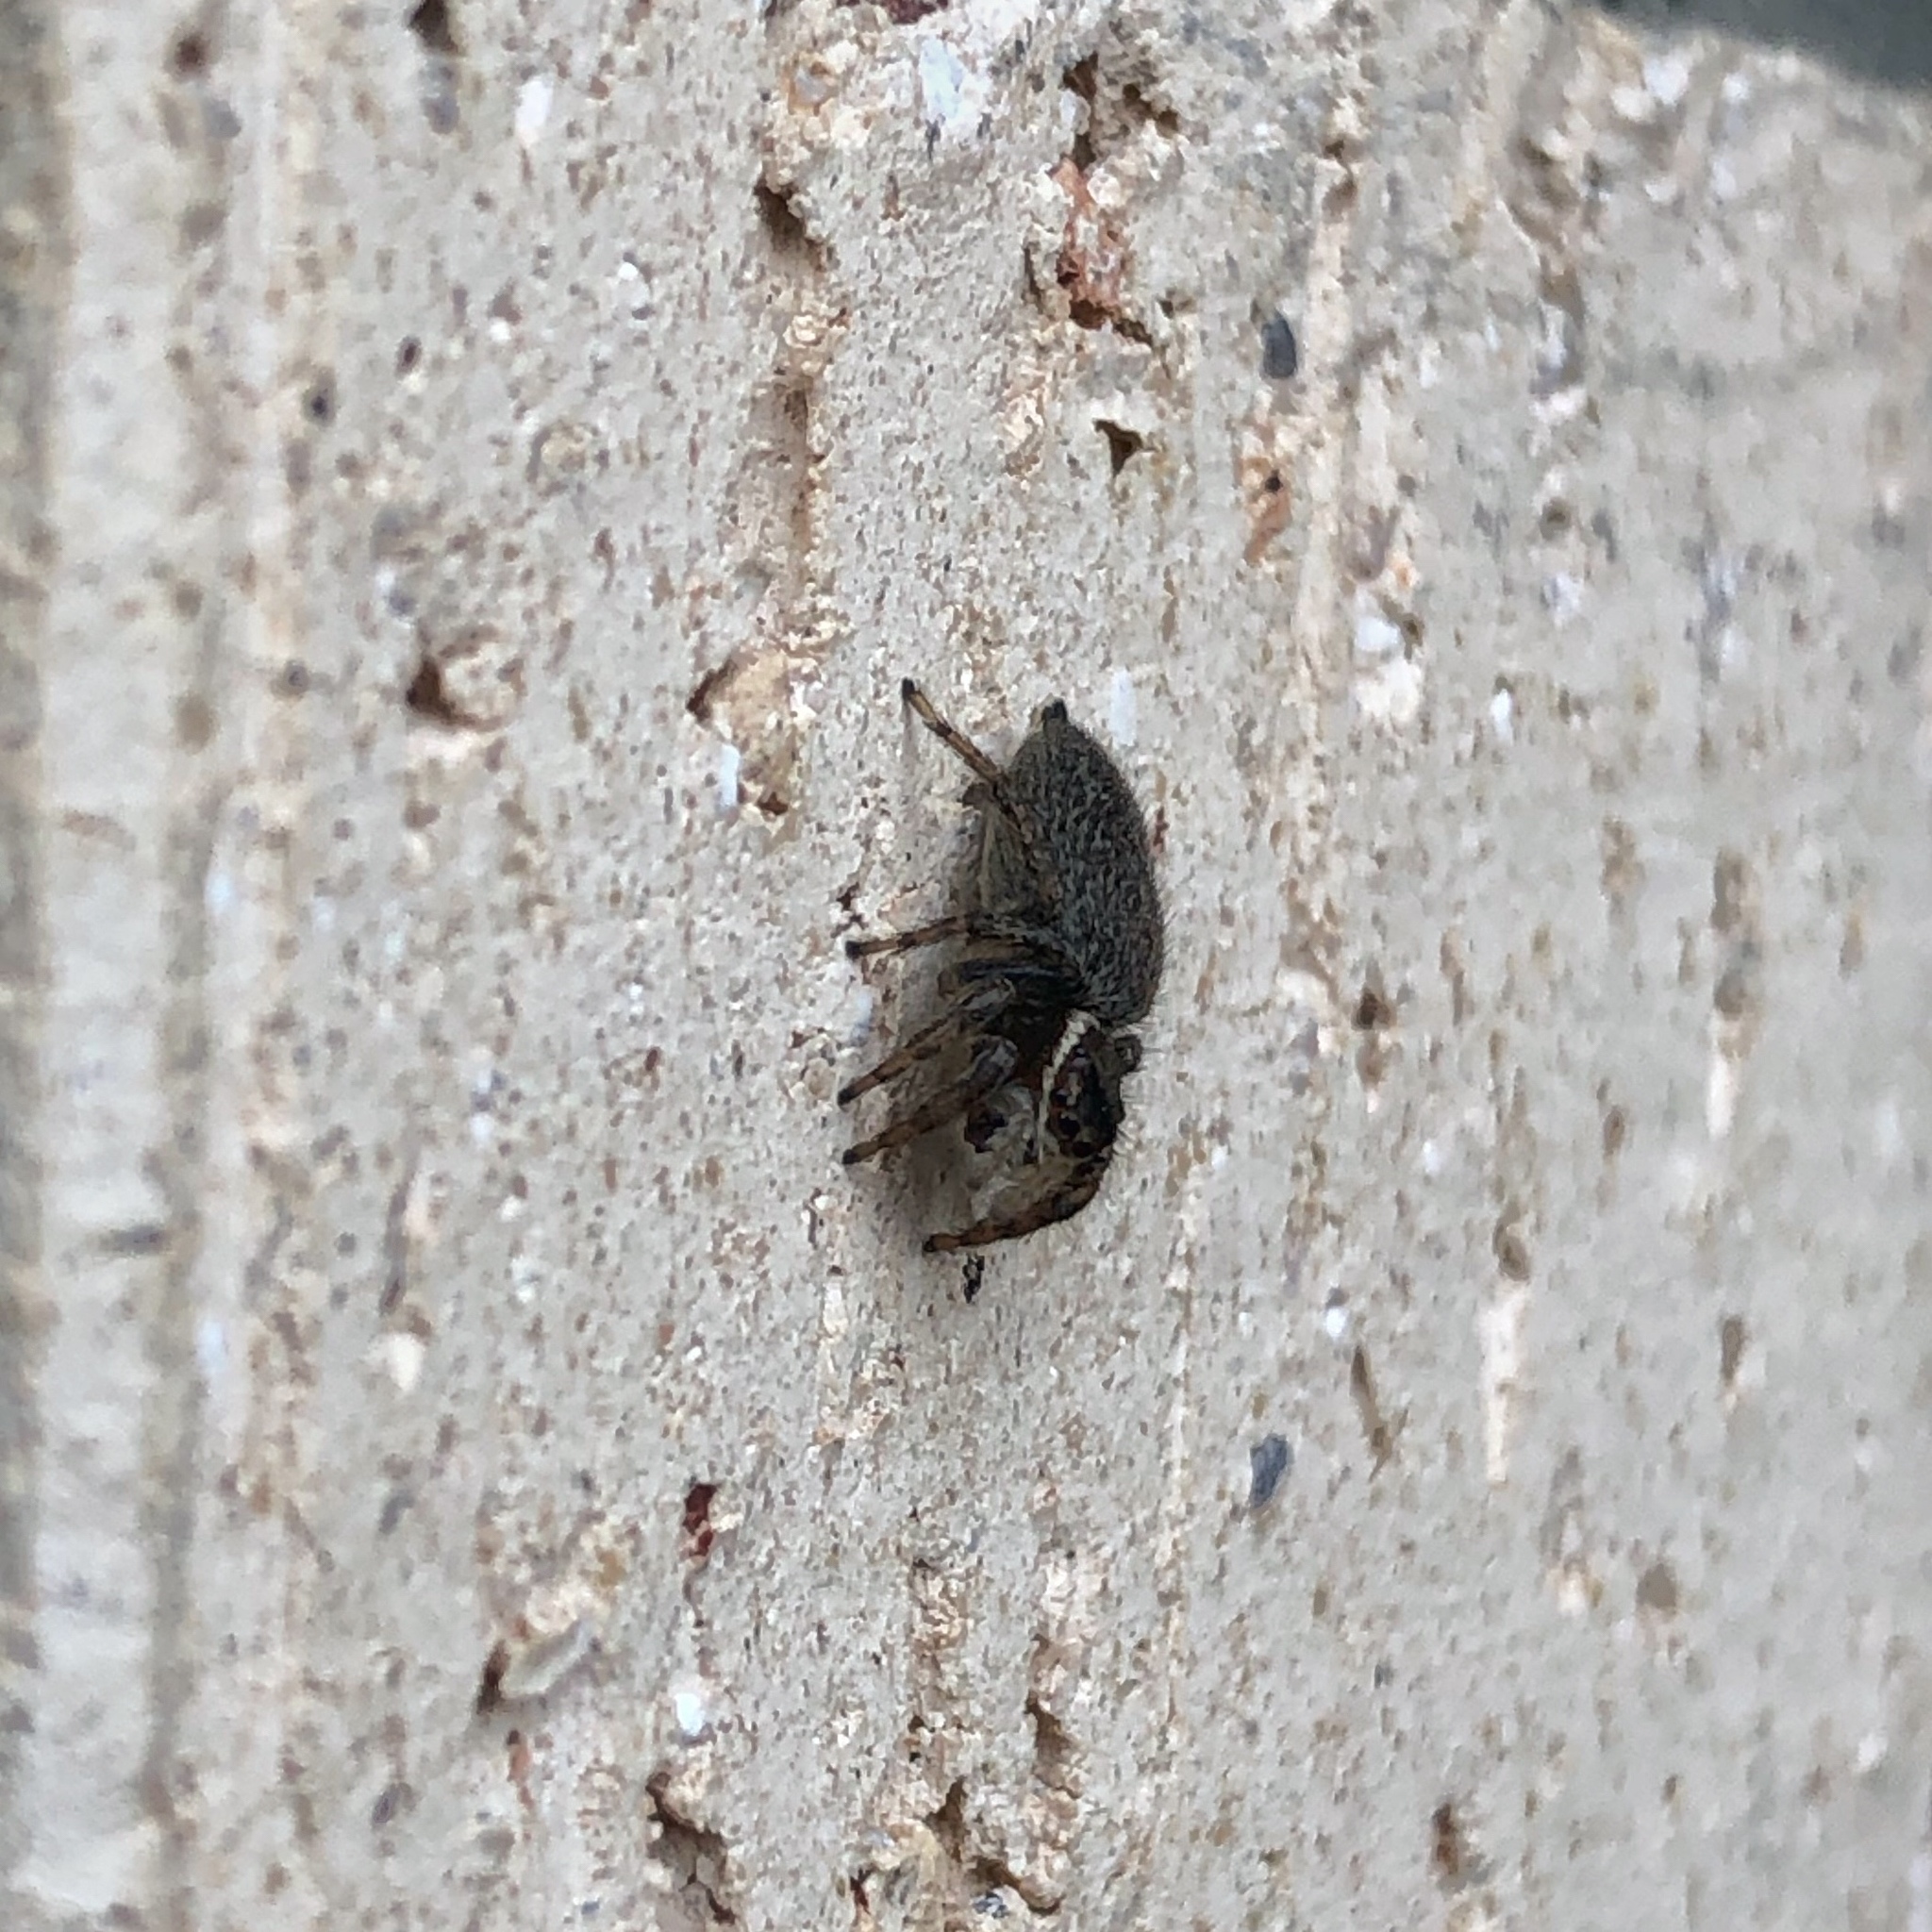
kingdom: Animalia
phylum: Arthropoda
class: Arachnida
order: Araneae
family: Salticidae
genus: Maratus
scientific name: Maratus griseus
